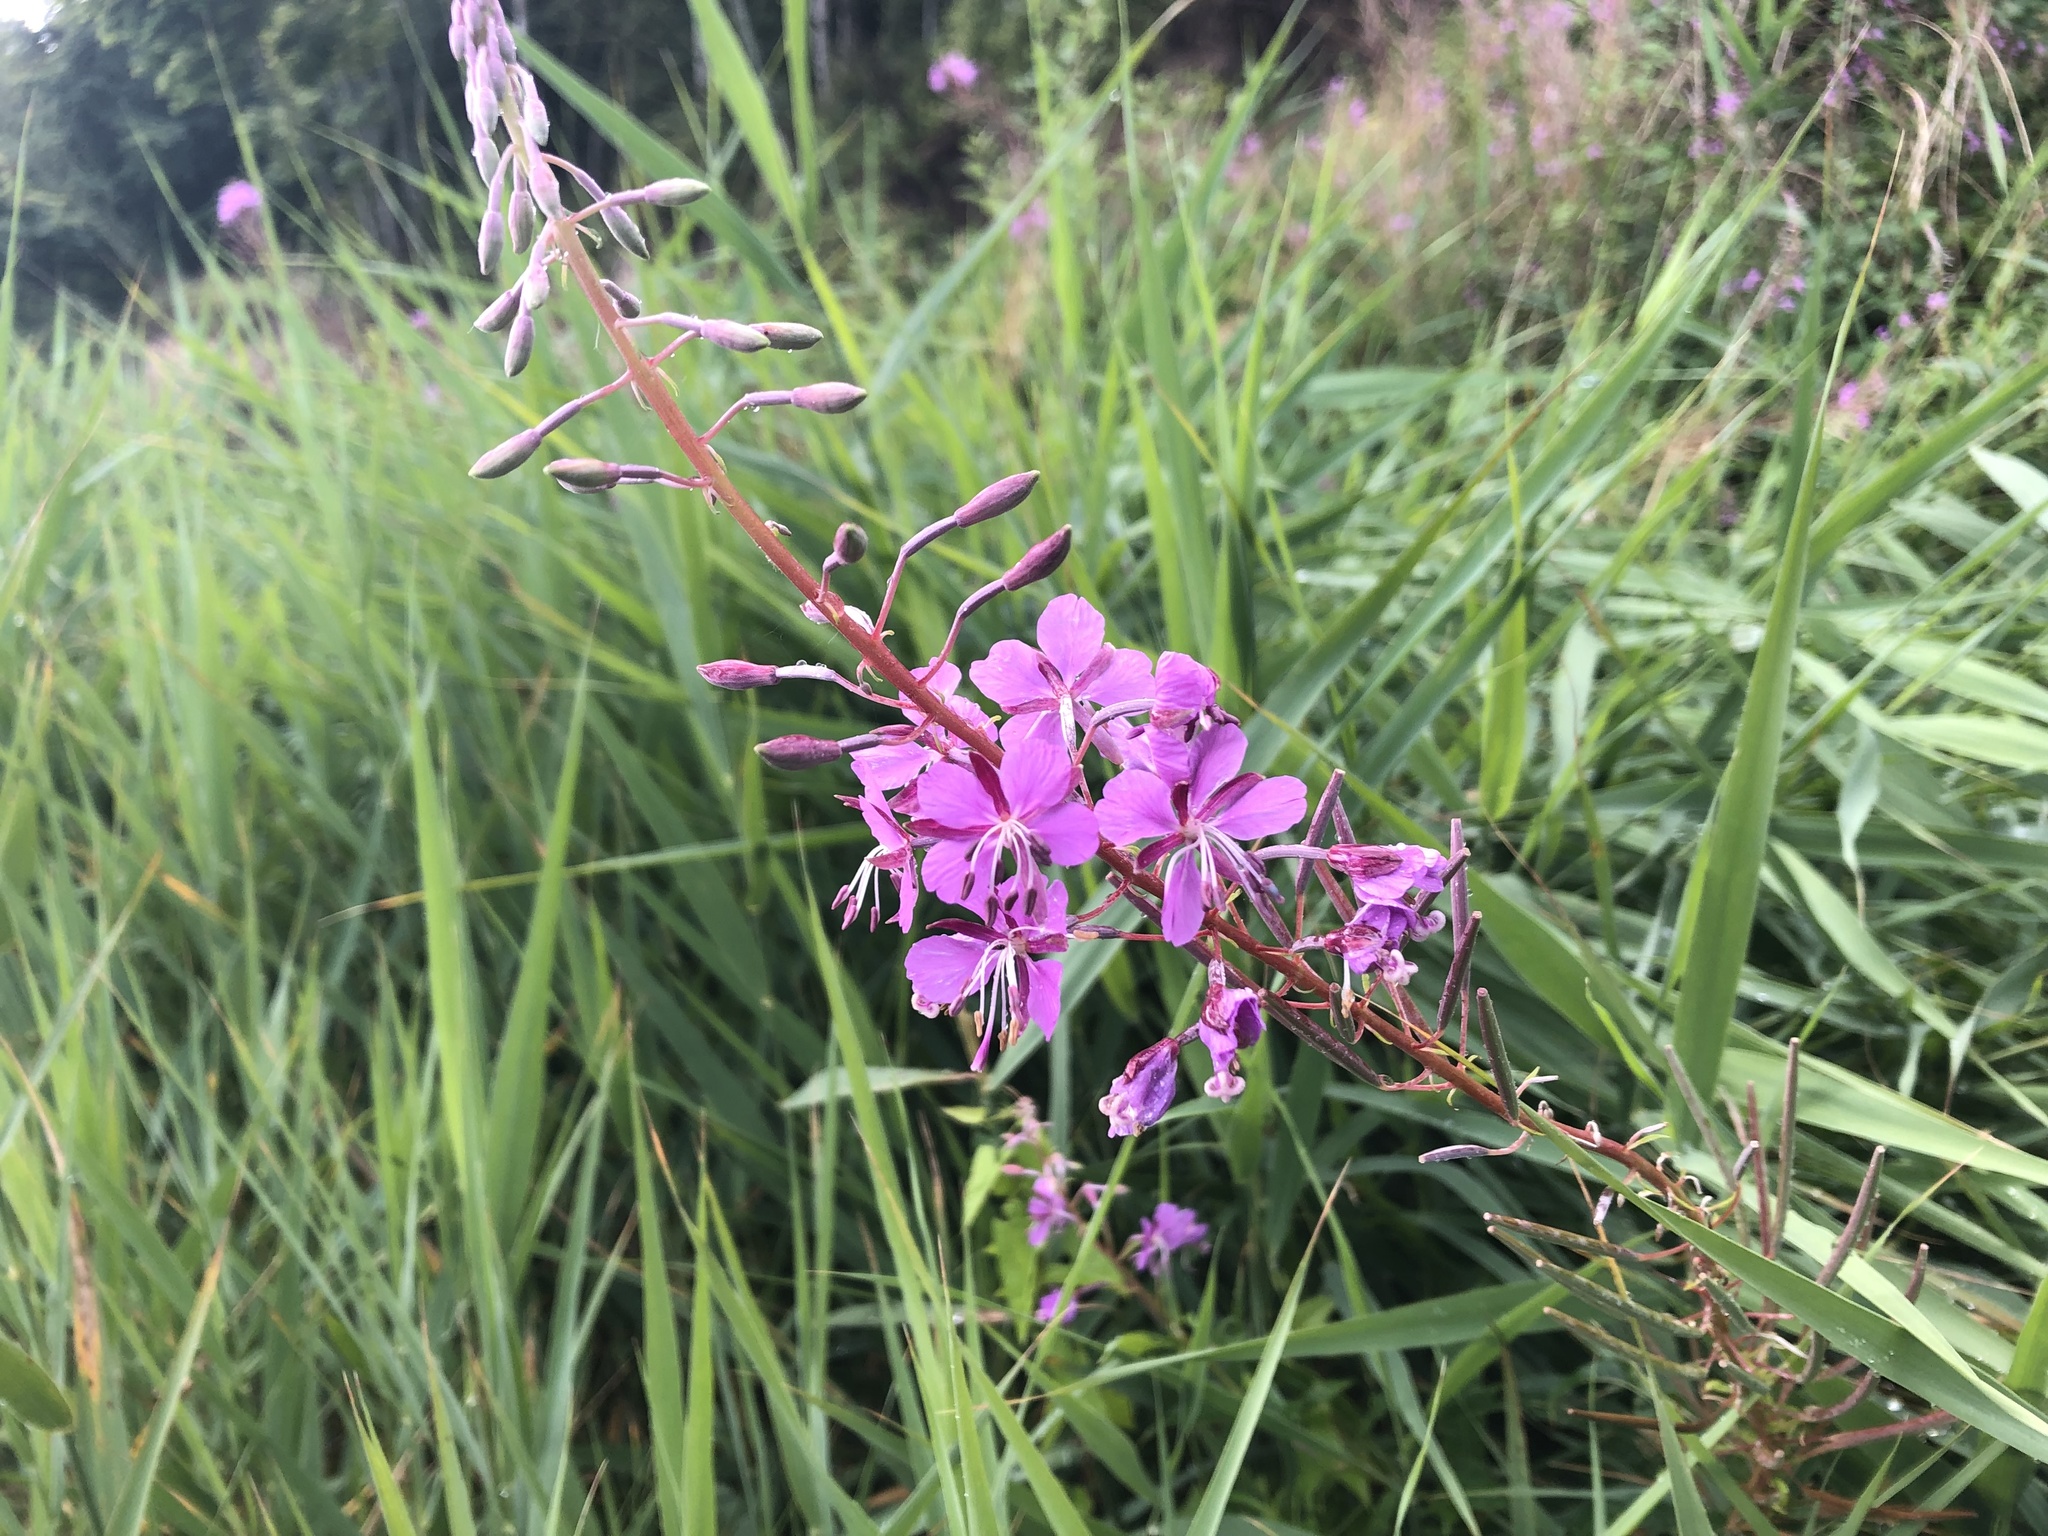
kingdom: Plantae
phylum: Tracheophyta
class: Magnoliopsida
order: Myrtales
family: Onagraceae
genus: Chamaenerion
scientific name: Chamaenerion angustifolium
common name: Fireweed
